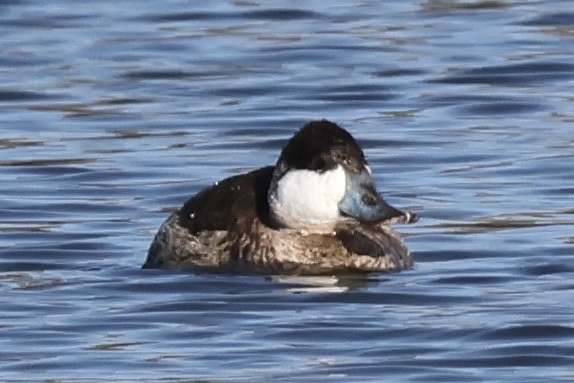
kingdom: Animalia
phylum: Chordata
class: Aves
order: Anseriformes
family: Anatidae
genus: Oxyura
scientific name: Oxyura jamaicensis
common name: Ruddy duck
